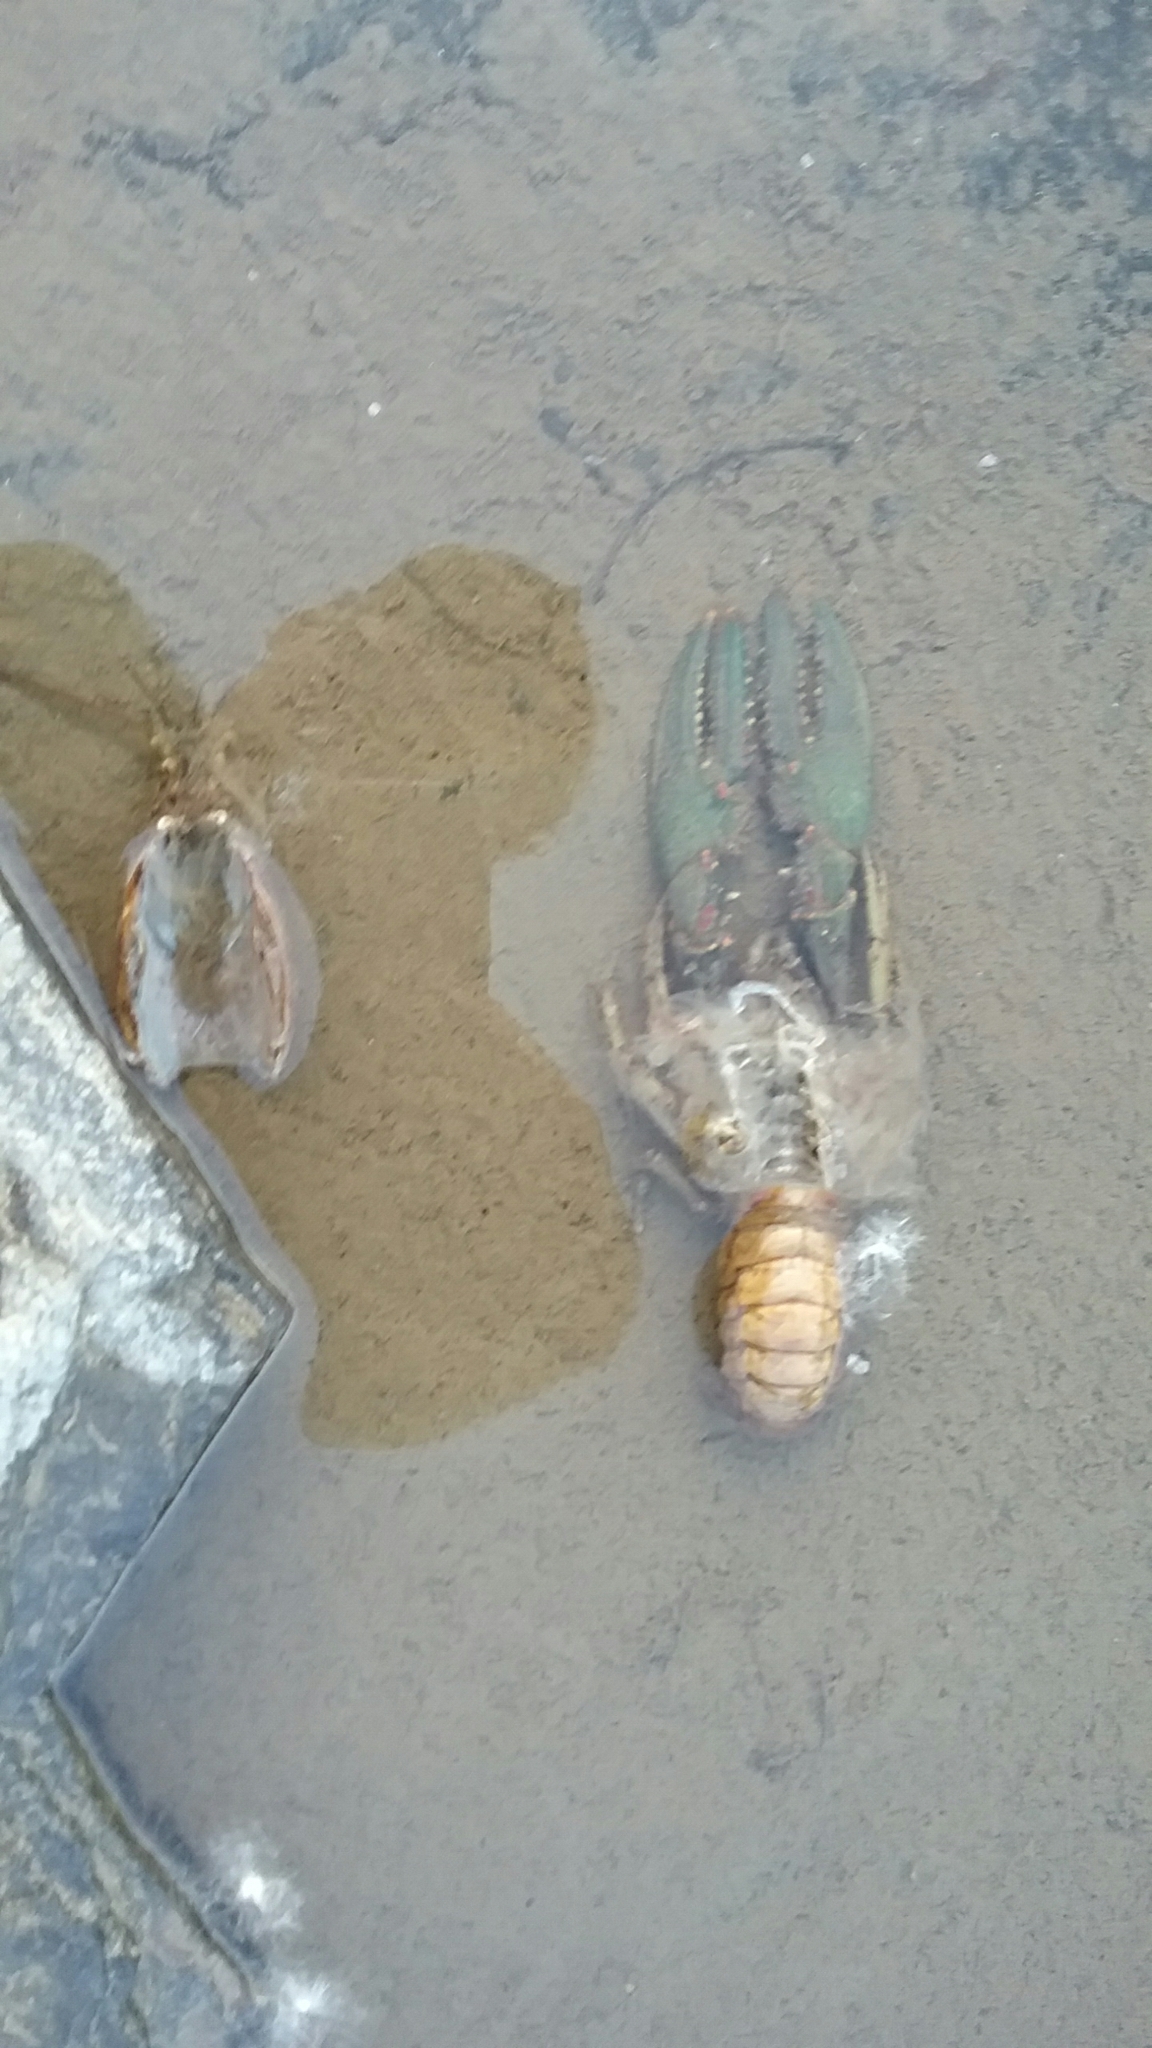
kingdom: Animalia
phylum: Arthropoda
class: Malacostraca
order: Decapoda
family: Cambaridae
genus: Faxonius
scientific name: Faxonius virilis
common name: Virile crayfish
